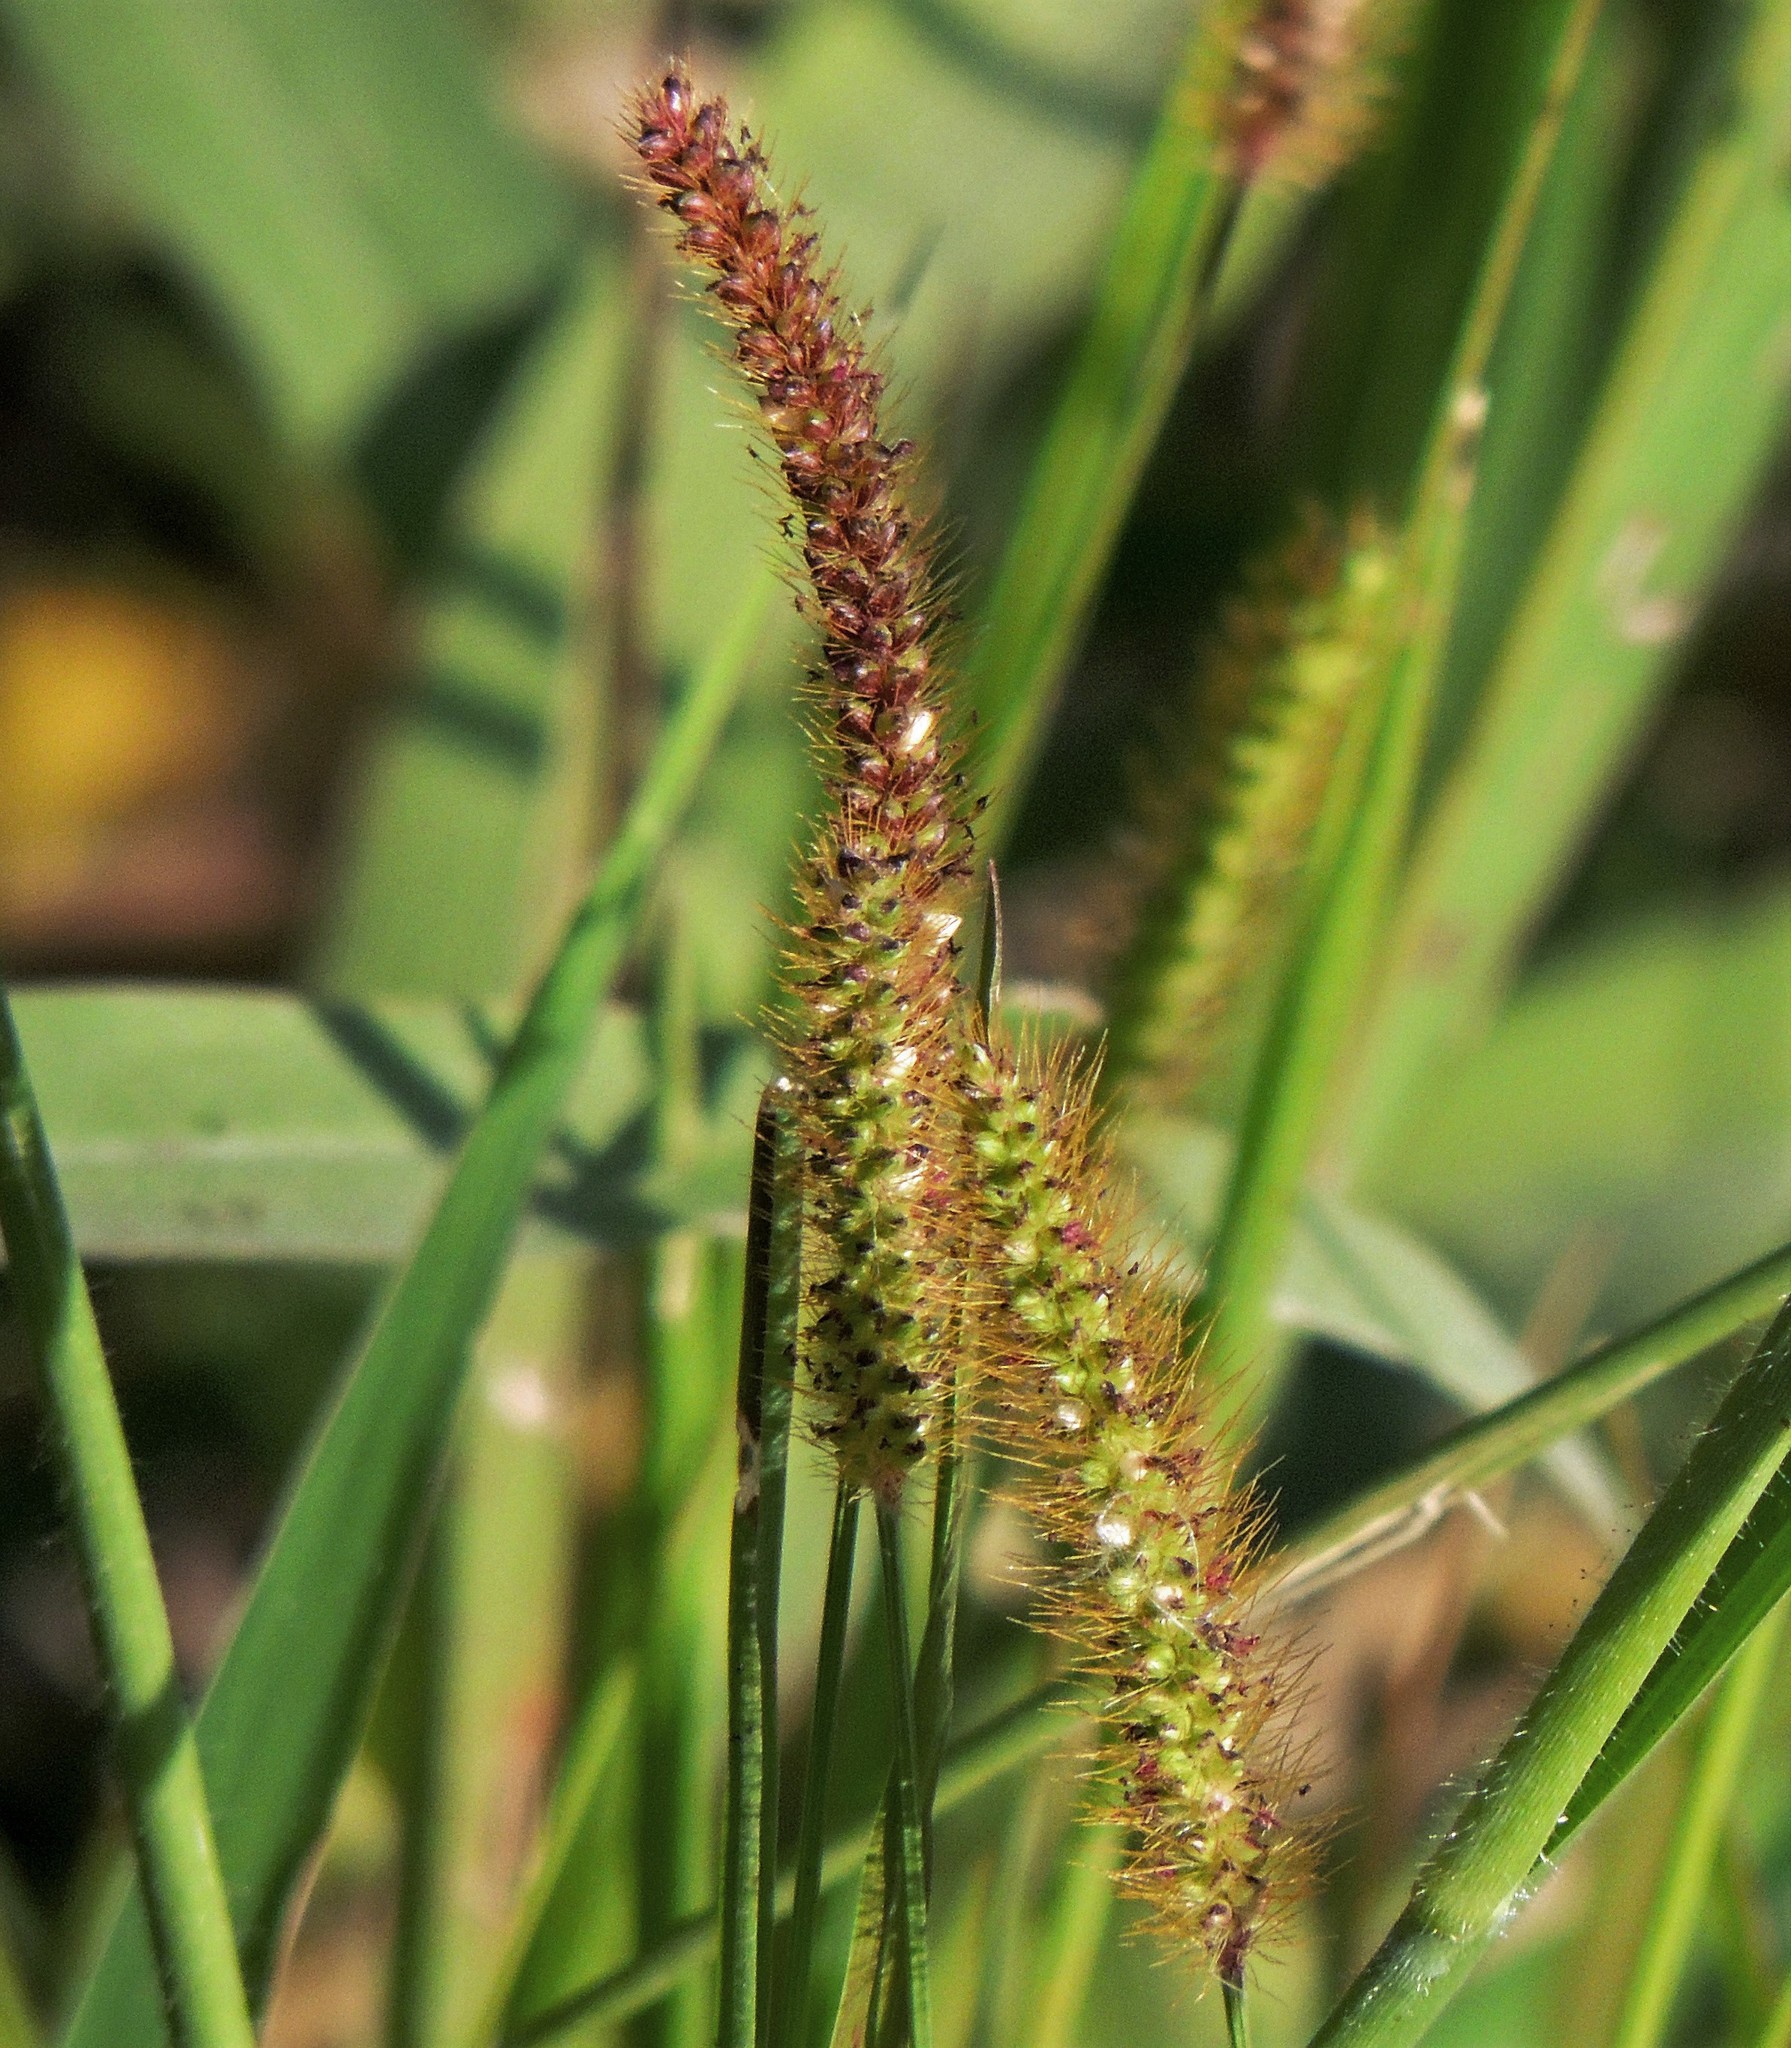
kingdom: Plantae
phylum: Tracheophyta
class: Liliopsida
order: Poales
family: Poaceae
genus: Setaria
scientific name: Setaria parviflora
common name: Knotroot bristle-grass
